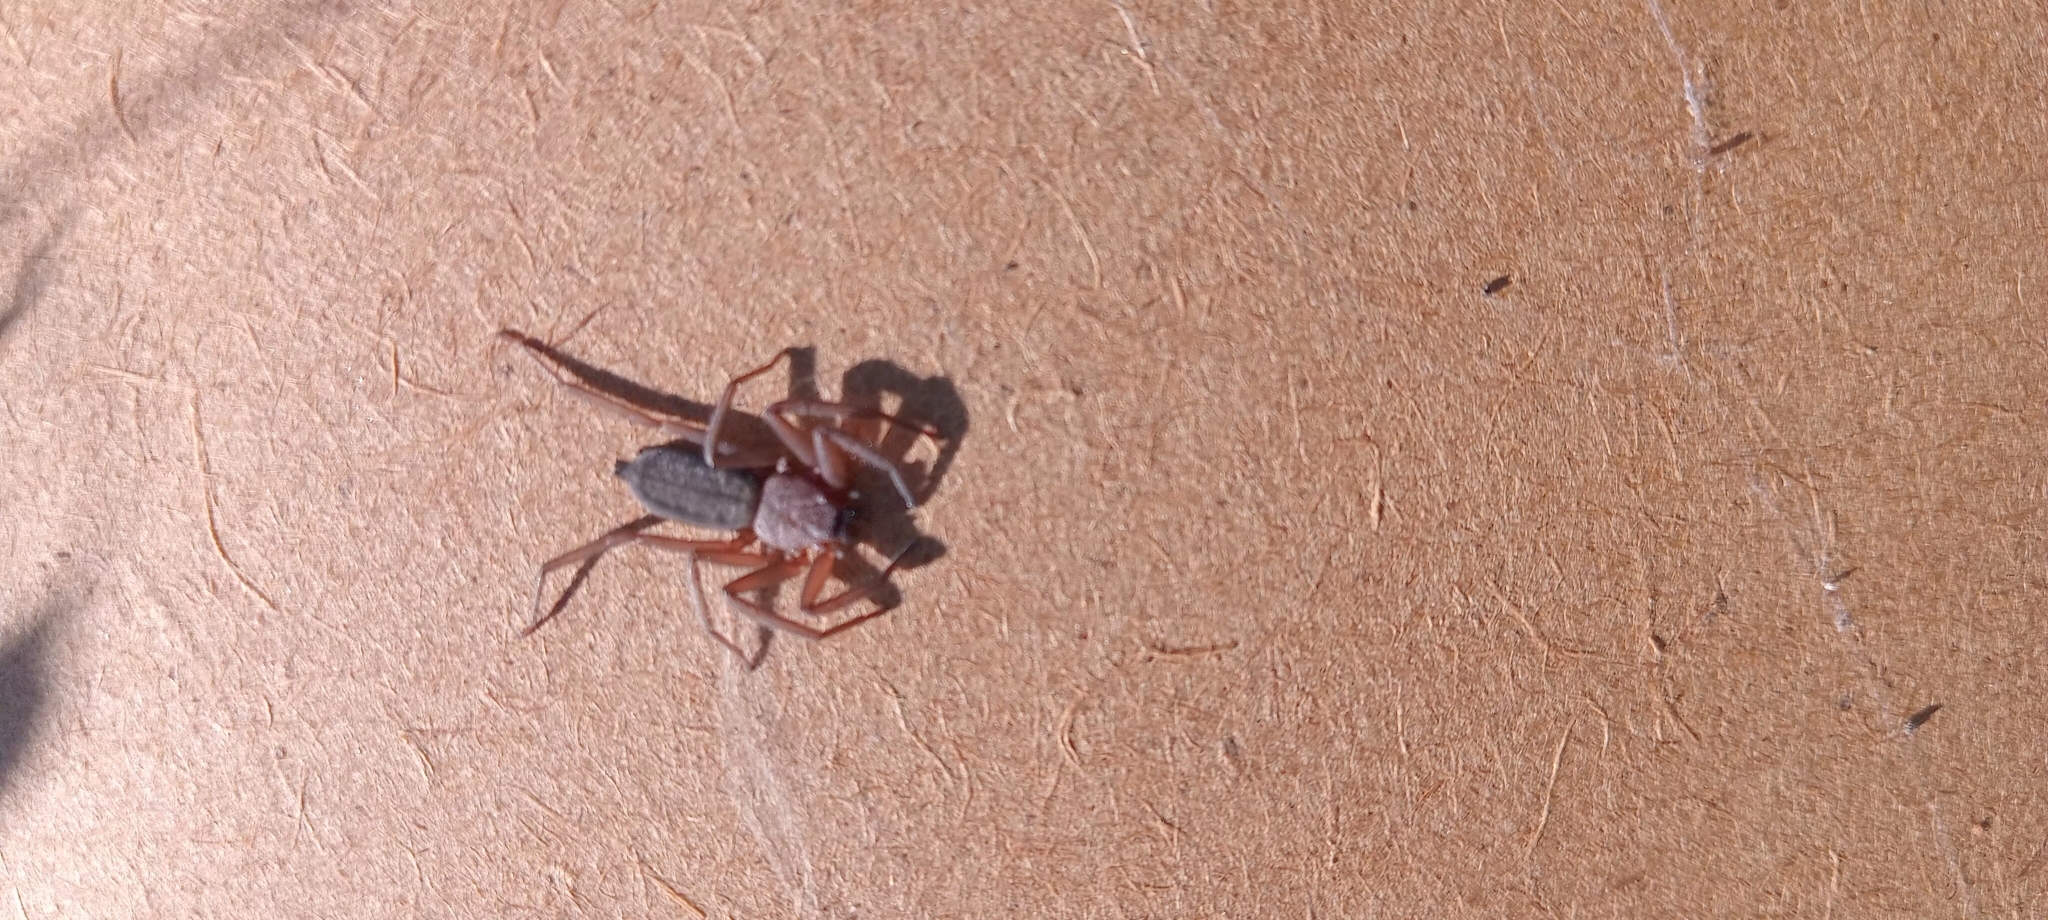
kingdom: Animalia
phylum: Arthropoda
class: Arachnida
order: Araneae
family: Trochanteriidae
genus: Hemicloea
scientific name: Hemicloea rogenhoferi
